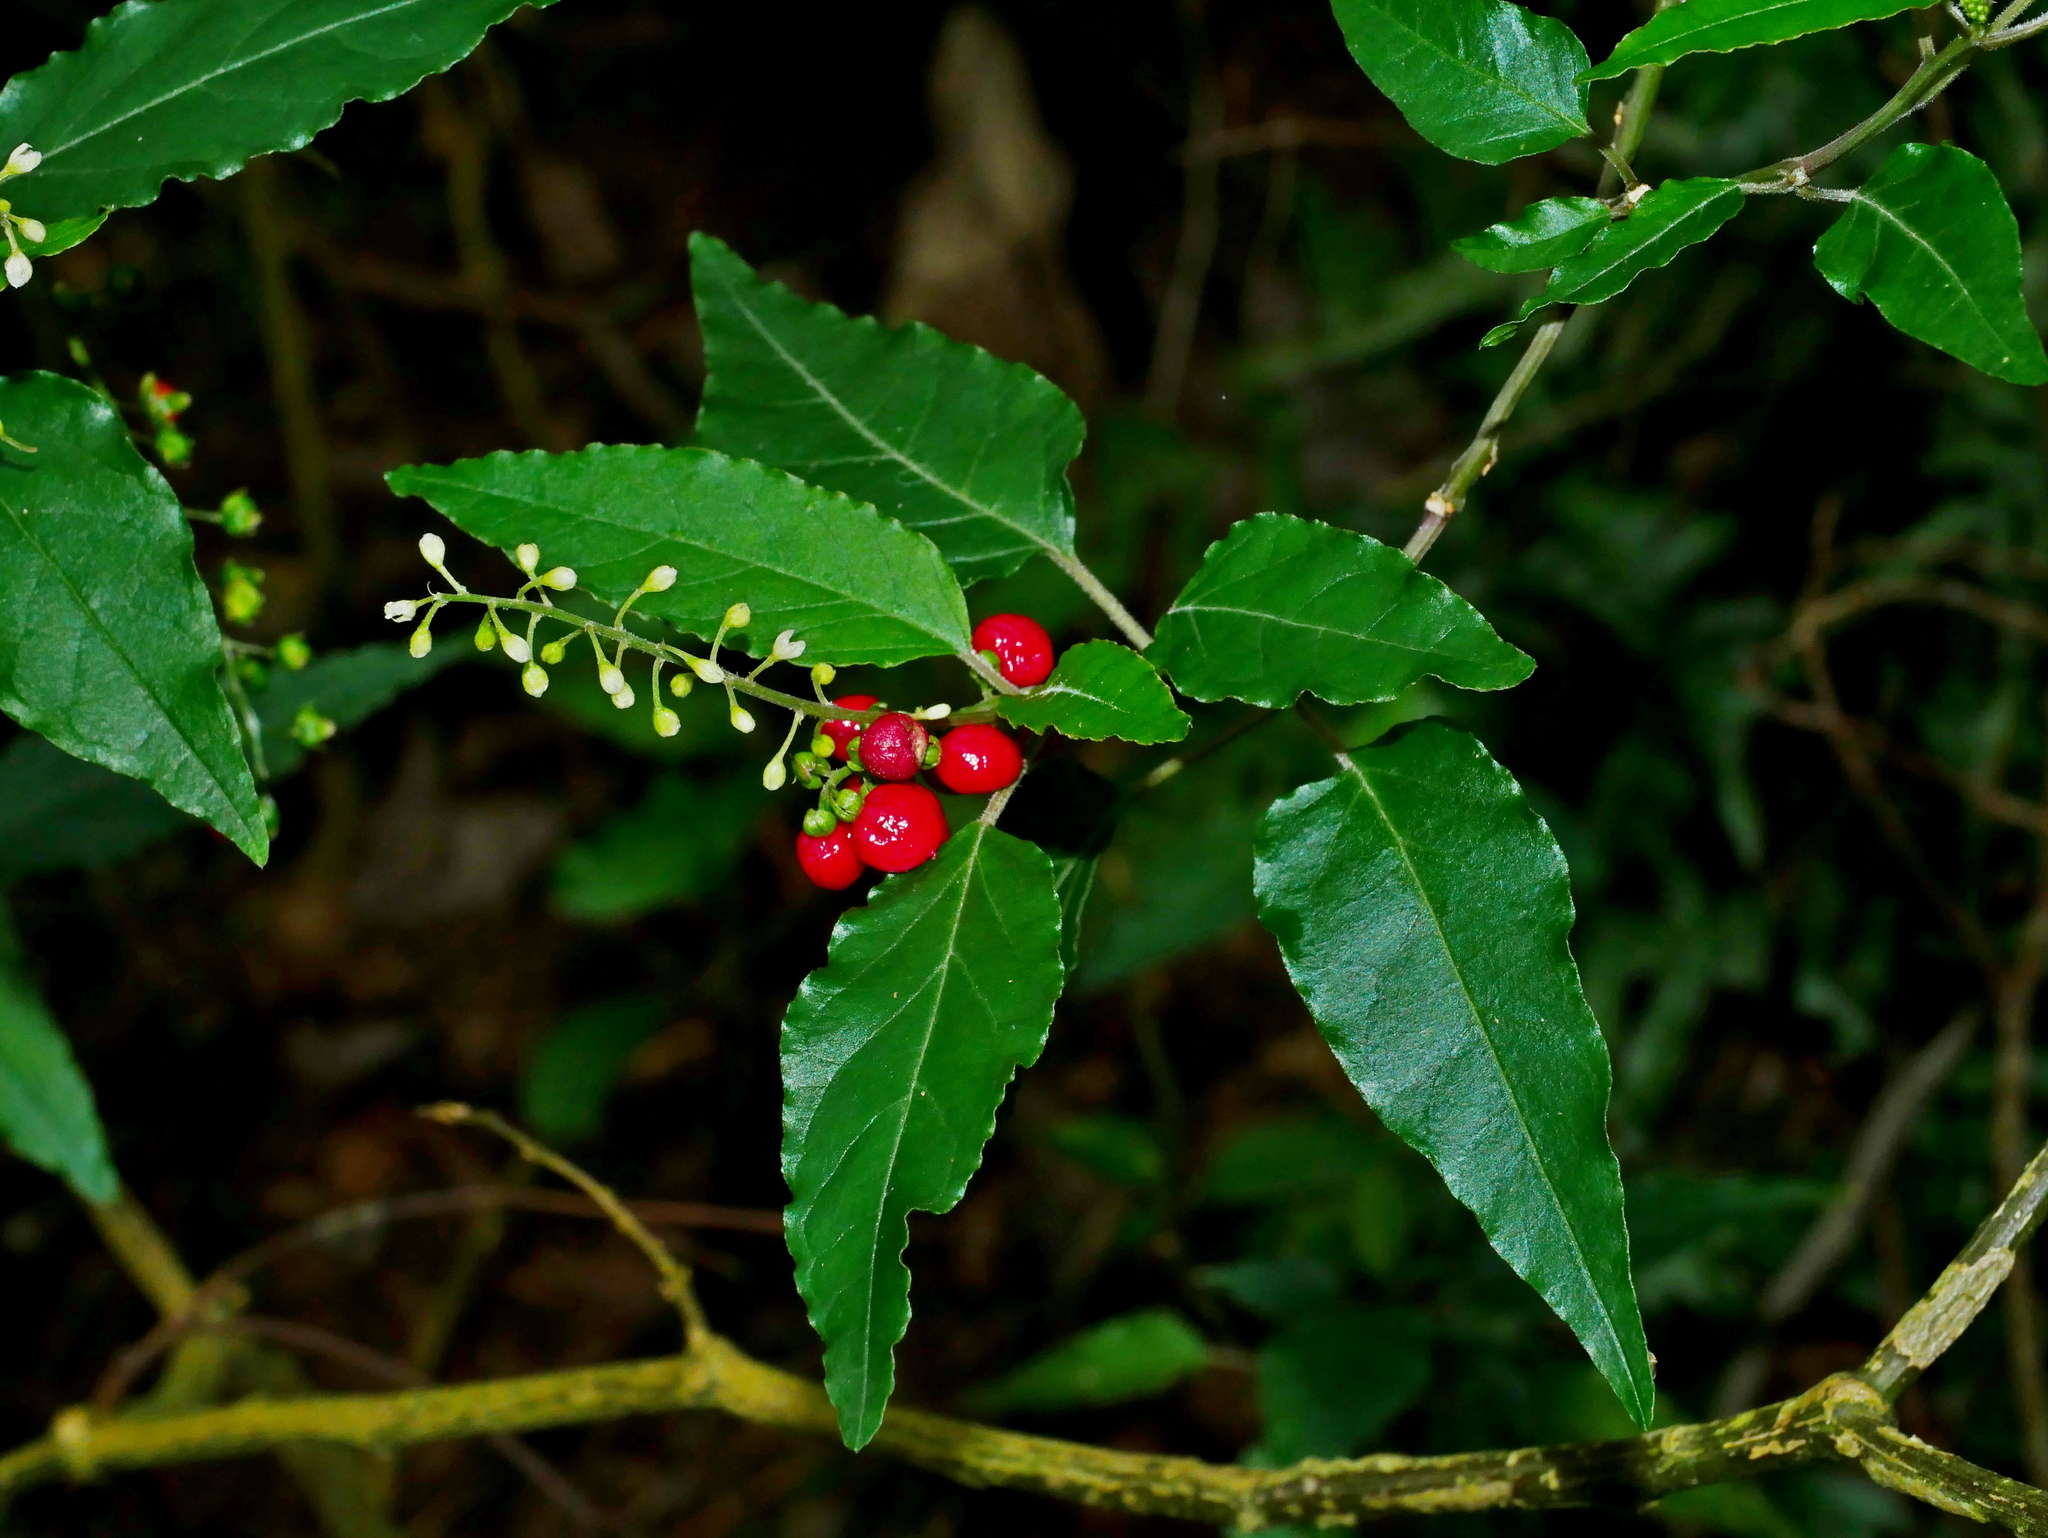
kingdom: Plantae
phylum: Tracheophyta
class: Magnoliopsida
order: Caryophyllales
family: Phytolaccaceae
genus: Rivina
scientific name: Rivina humilis
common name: Rougeplant
